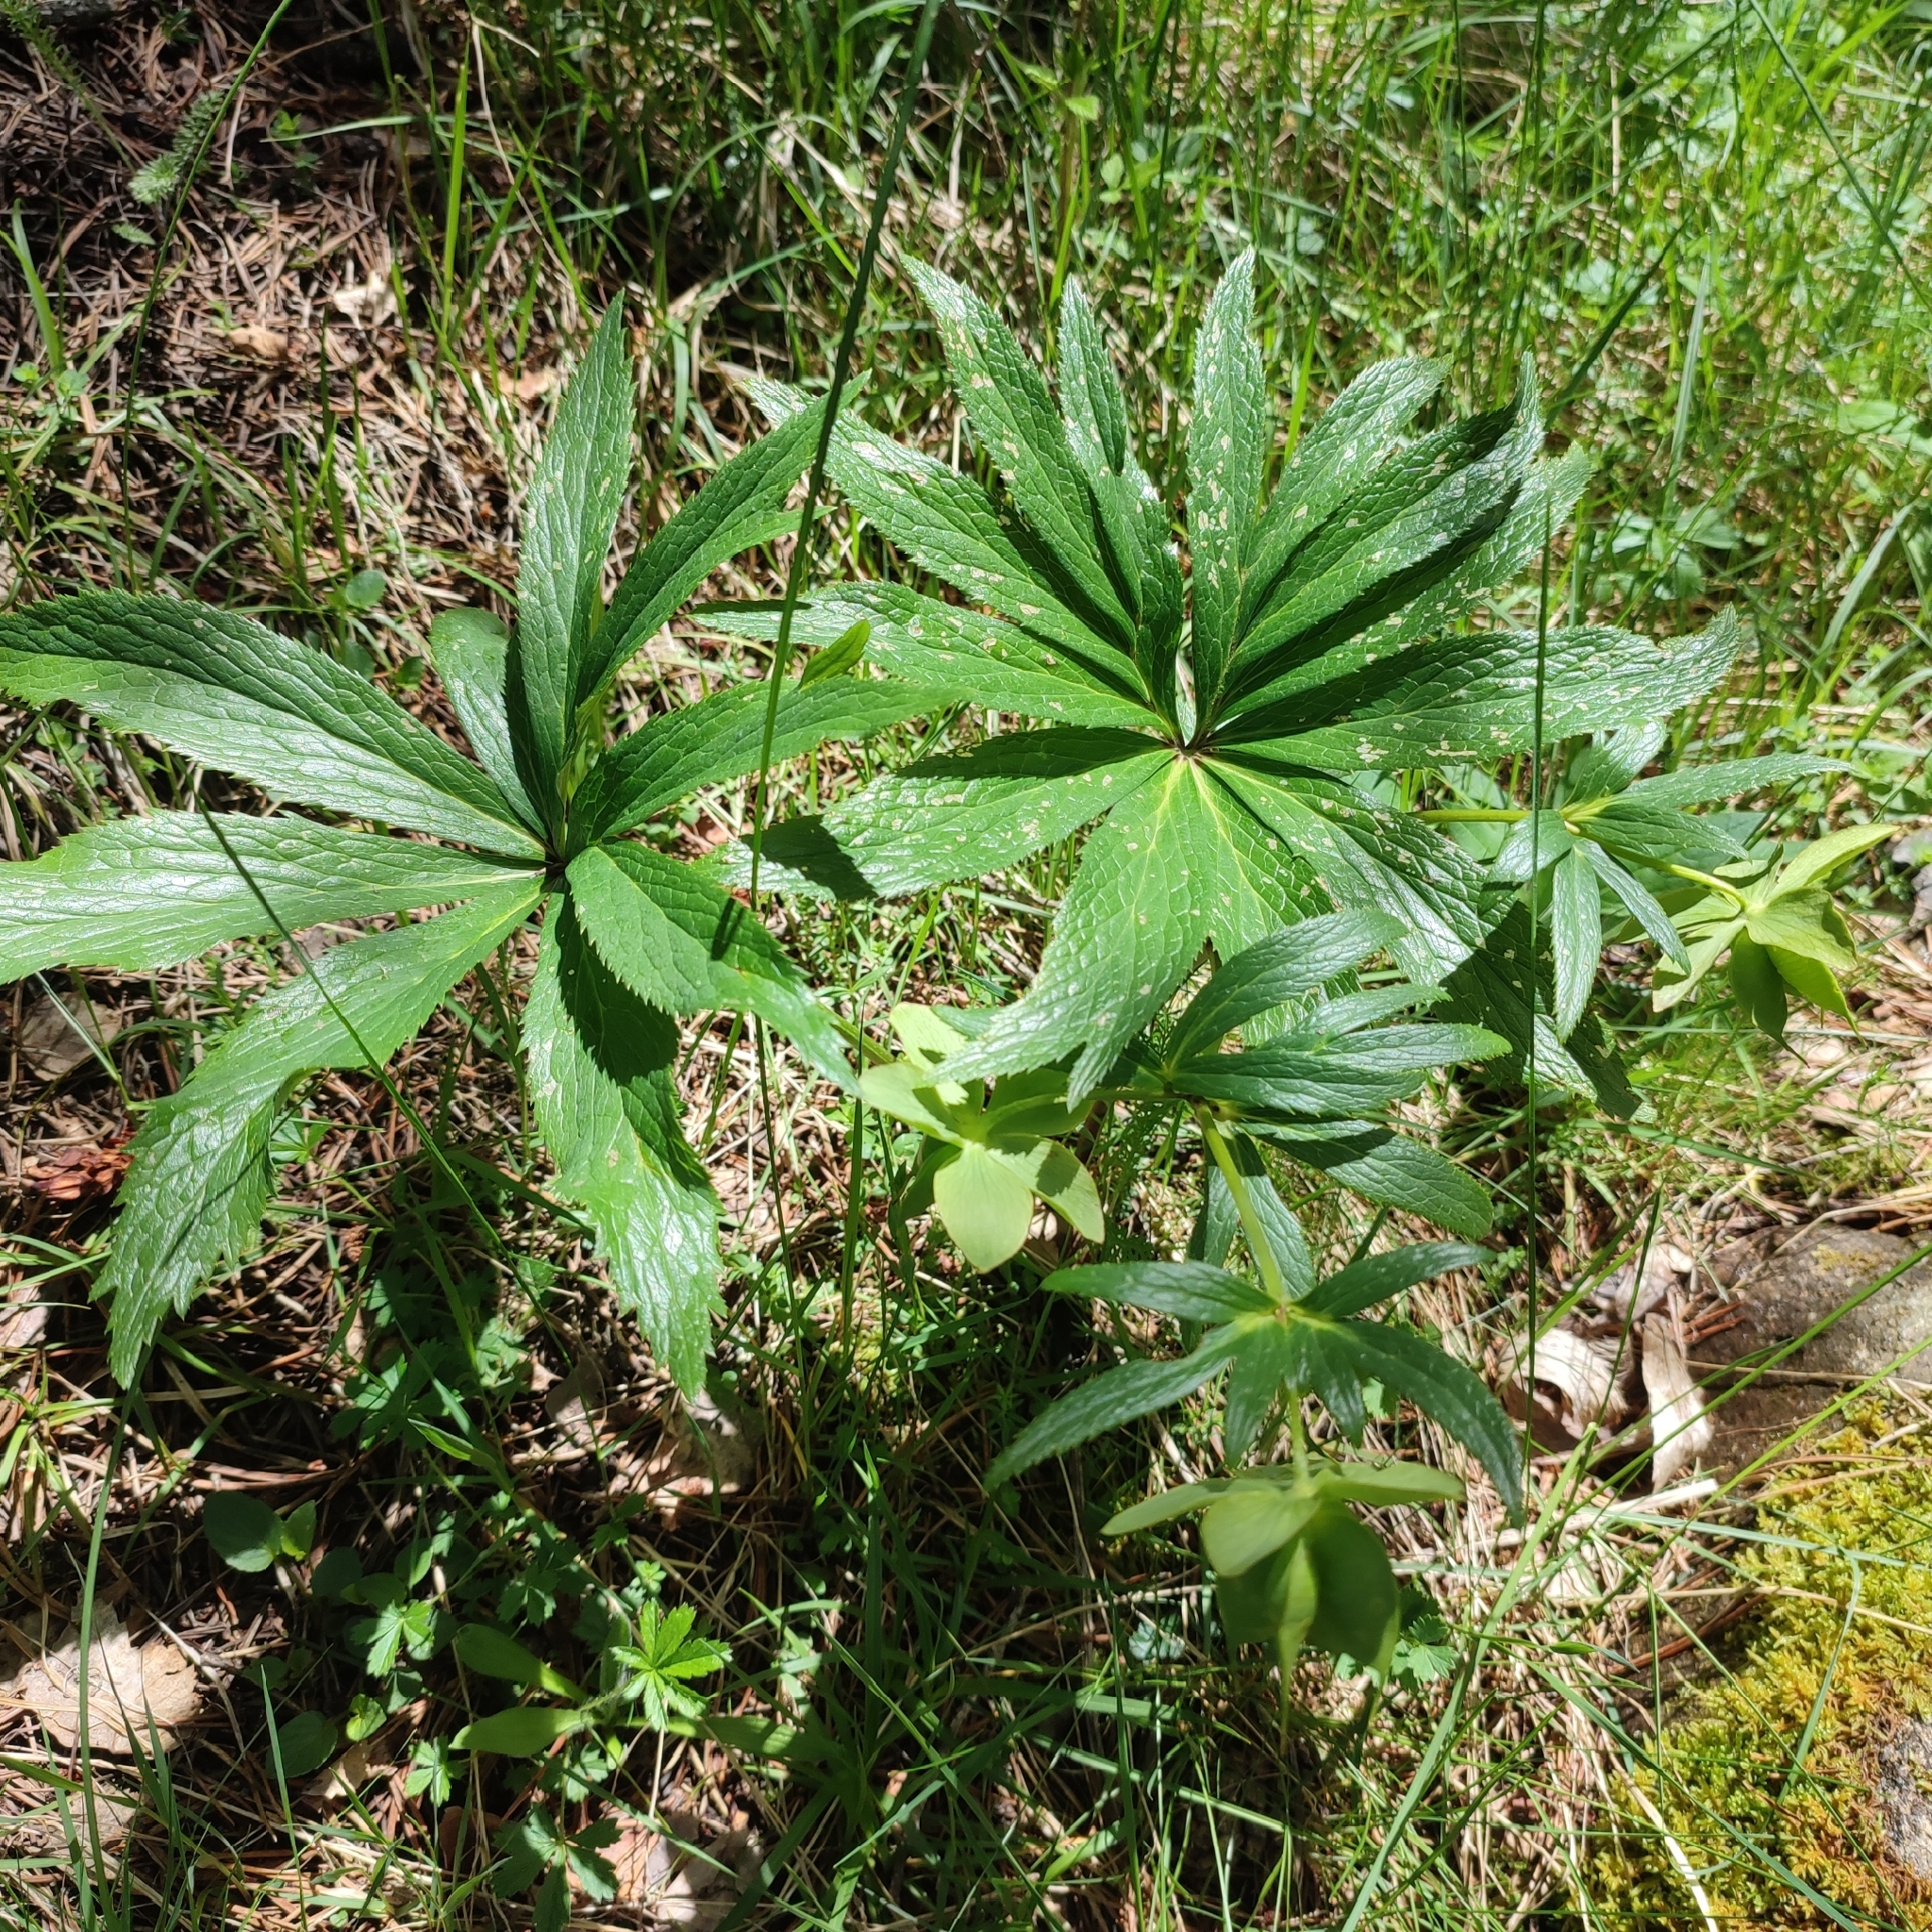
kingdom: Plantae
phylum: Tracheophyta
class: Magnoliopsida
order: Ranunculales
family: Ranunculaceae
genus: Helleborus
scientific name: Helleborus viridis
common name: Green hellebore
